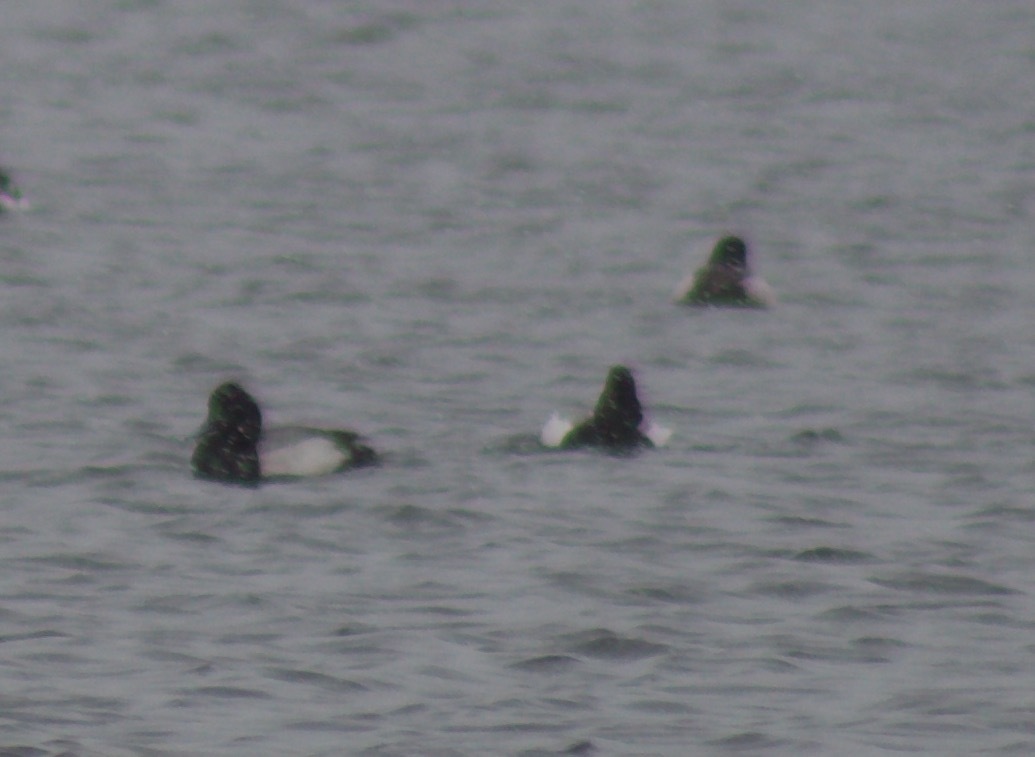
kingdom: Animalia
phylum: Chordata
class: Aves
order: Anseriformes
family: Anatidae
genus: Aythya
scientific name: Aythya marila
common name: Greater scaup
